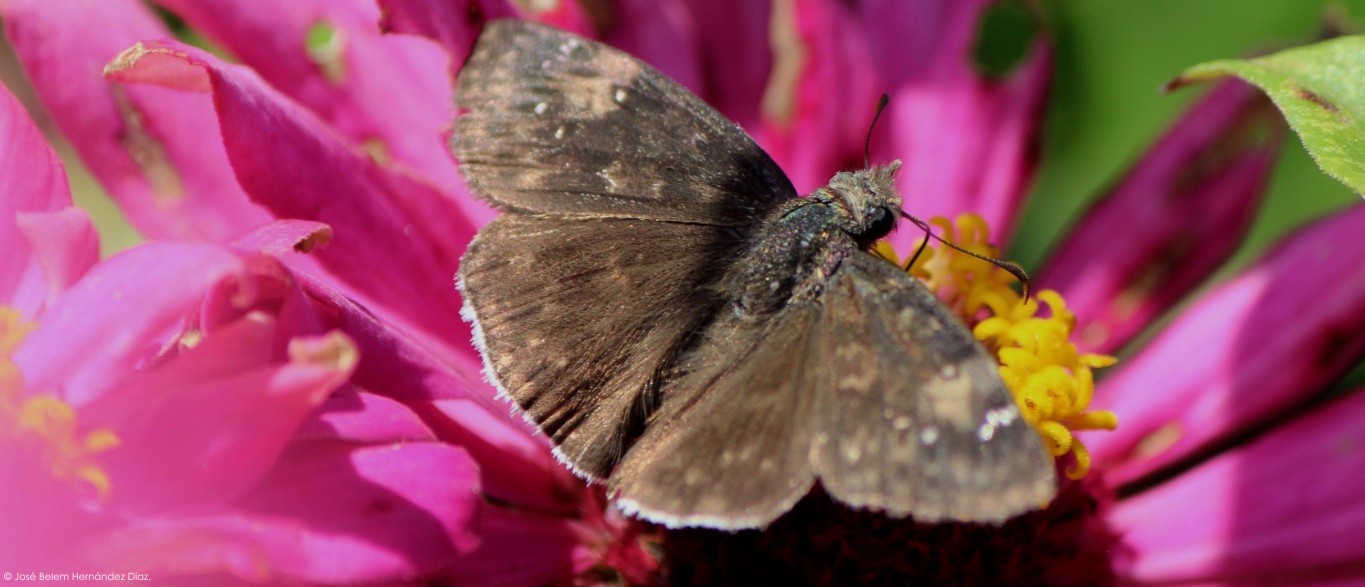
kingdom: Animalia
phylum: Arthropoda
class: Insecta
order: Lepidoptera
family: Hesperiidae
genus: Erynnis
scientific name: Erynnis funeralis
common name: Funereal duskywing
